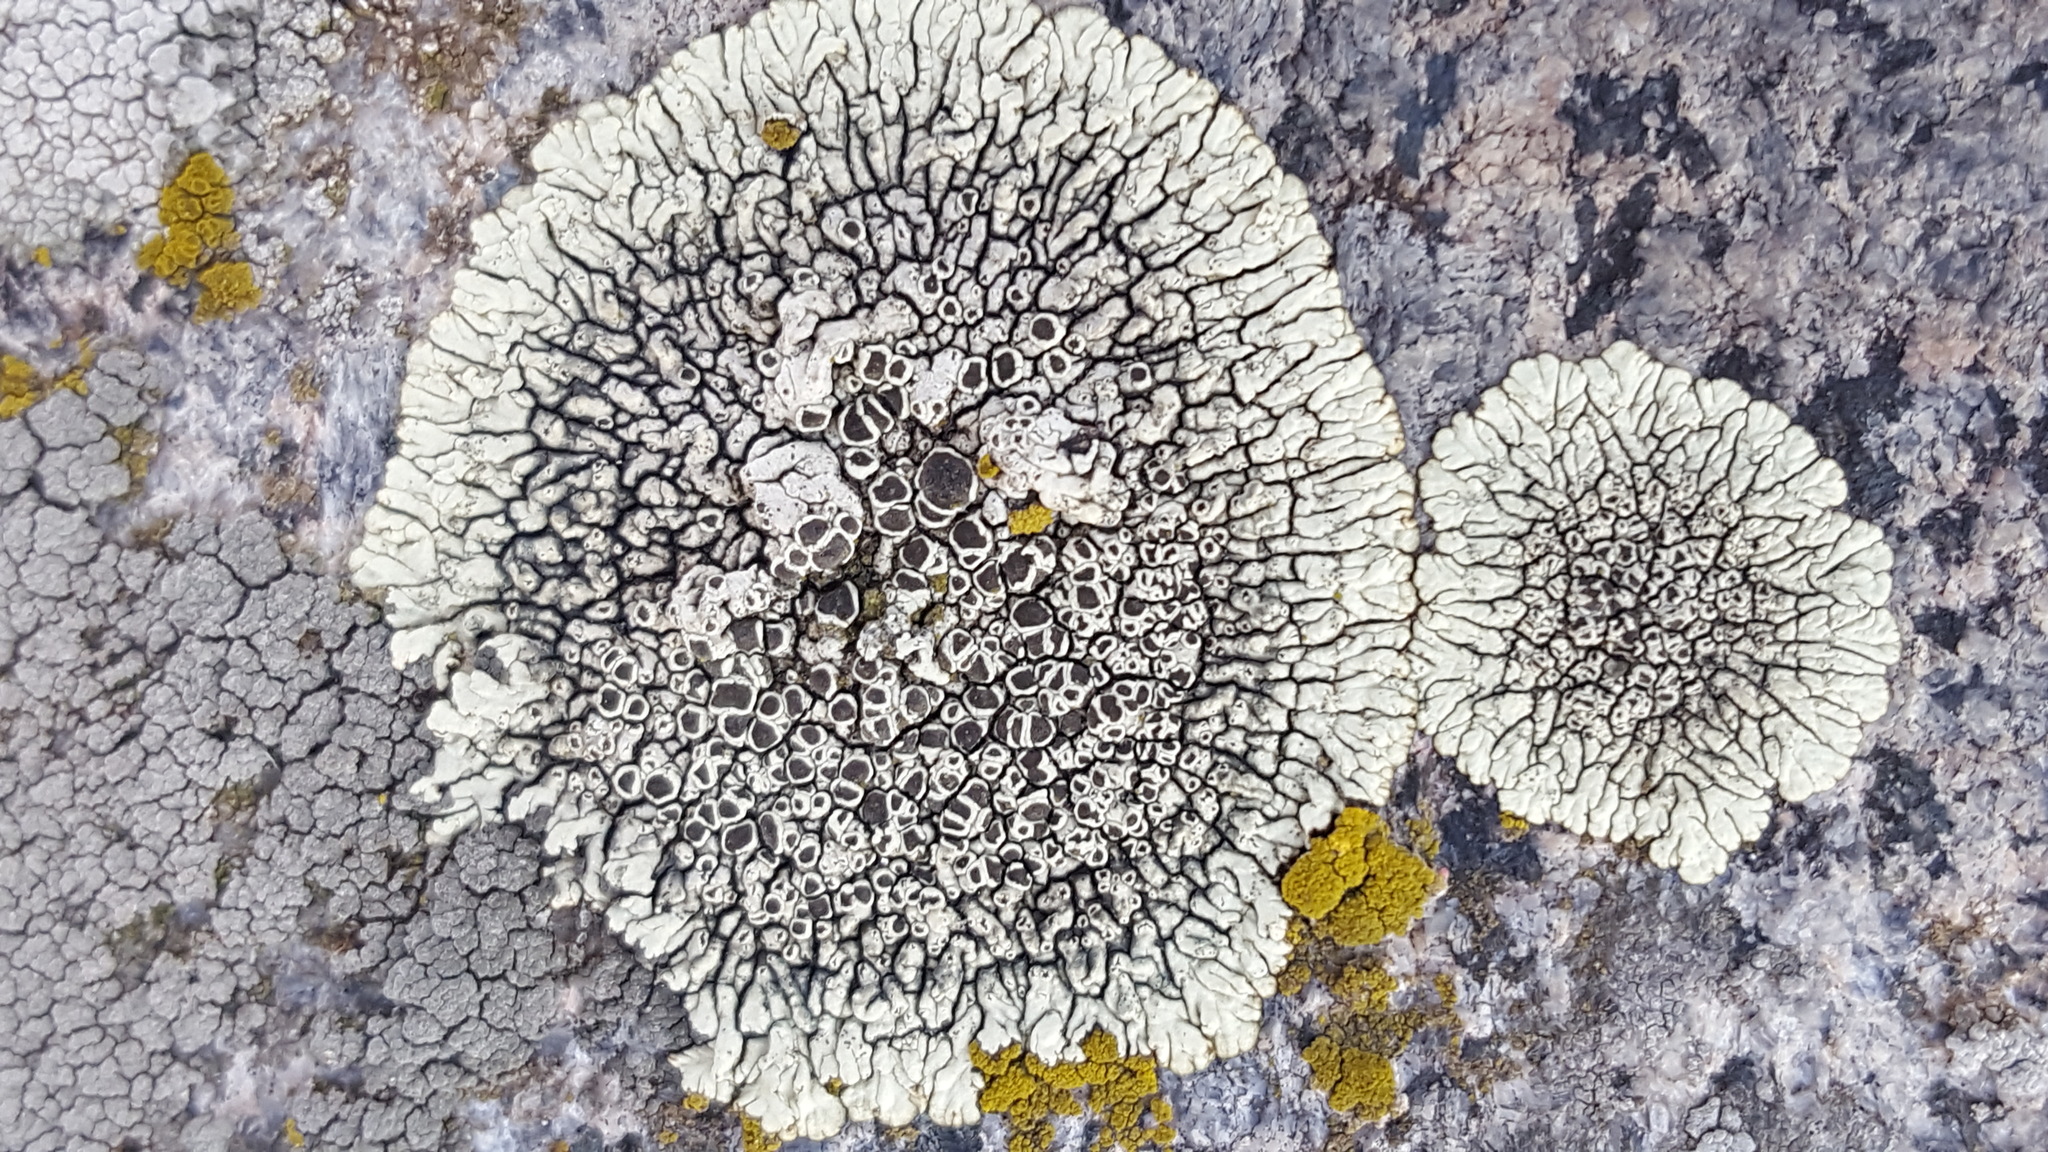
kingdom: Fungi
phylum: Ascomycota
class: Lecanoromycetes
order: Caliciales
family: Caliciaceae
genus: Dimelaena
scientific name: Dimelaena oreina
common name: Golden moonglow lichen
